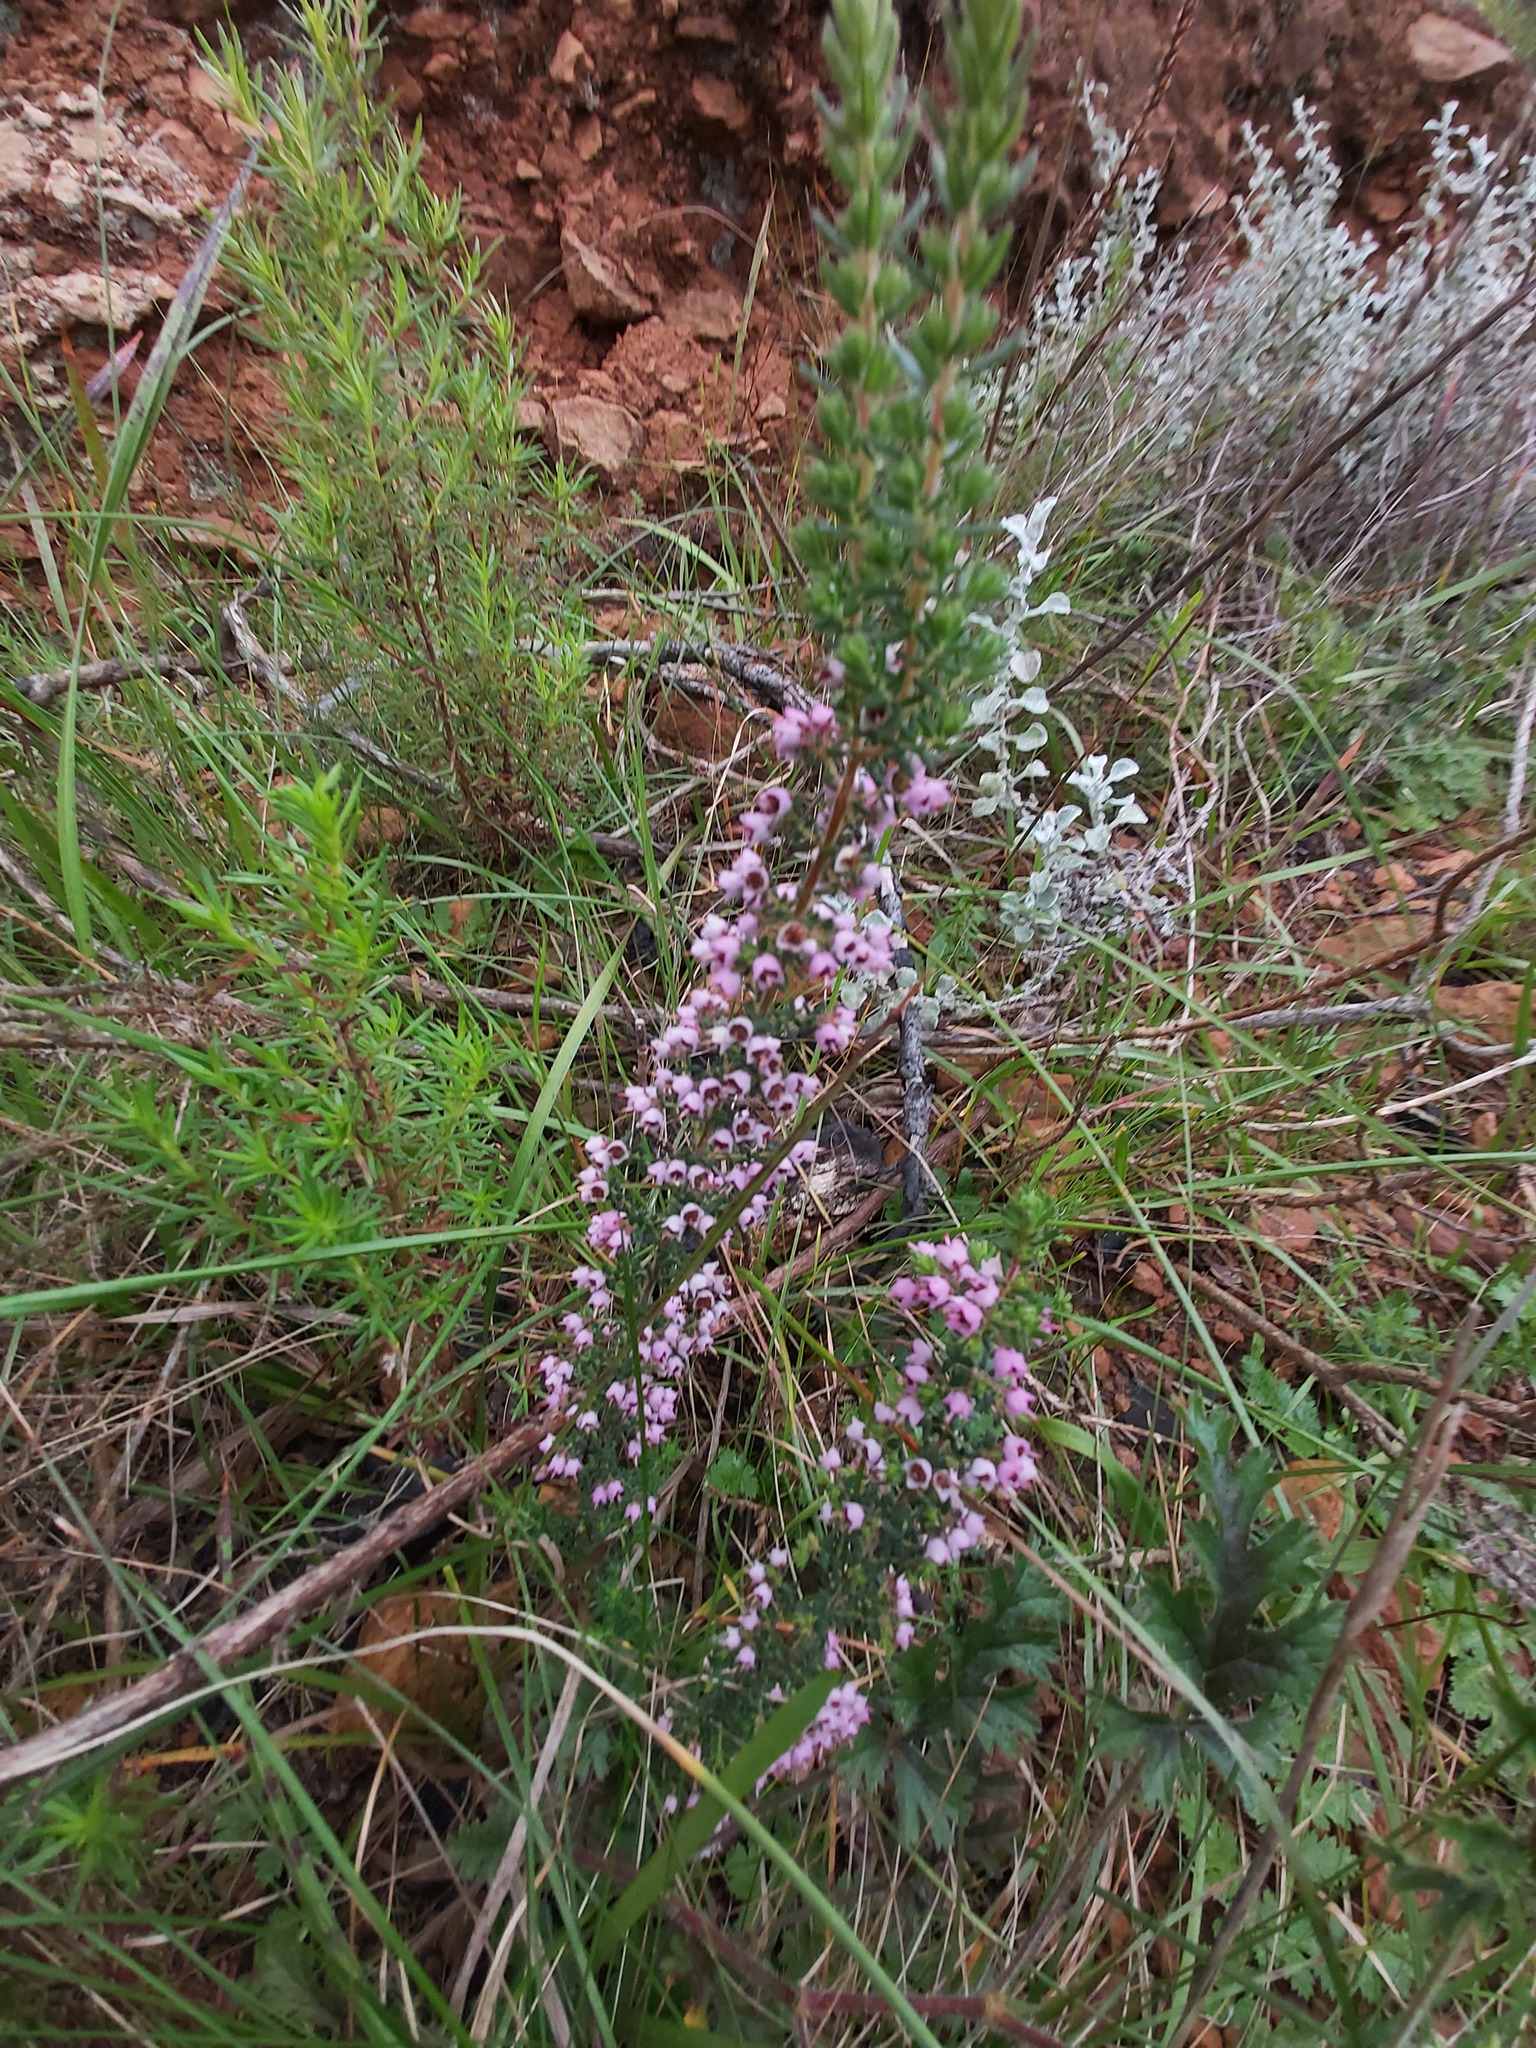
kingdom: Plantae
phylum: Tracheophyta
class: Magnoliopsida
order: Ericales
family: Ericaceae
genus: Erica
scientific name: Erica bicolor
